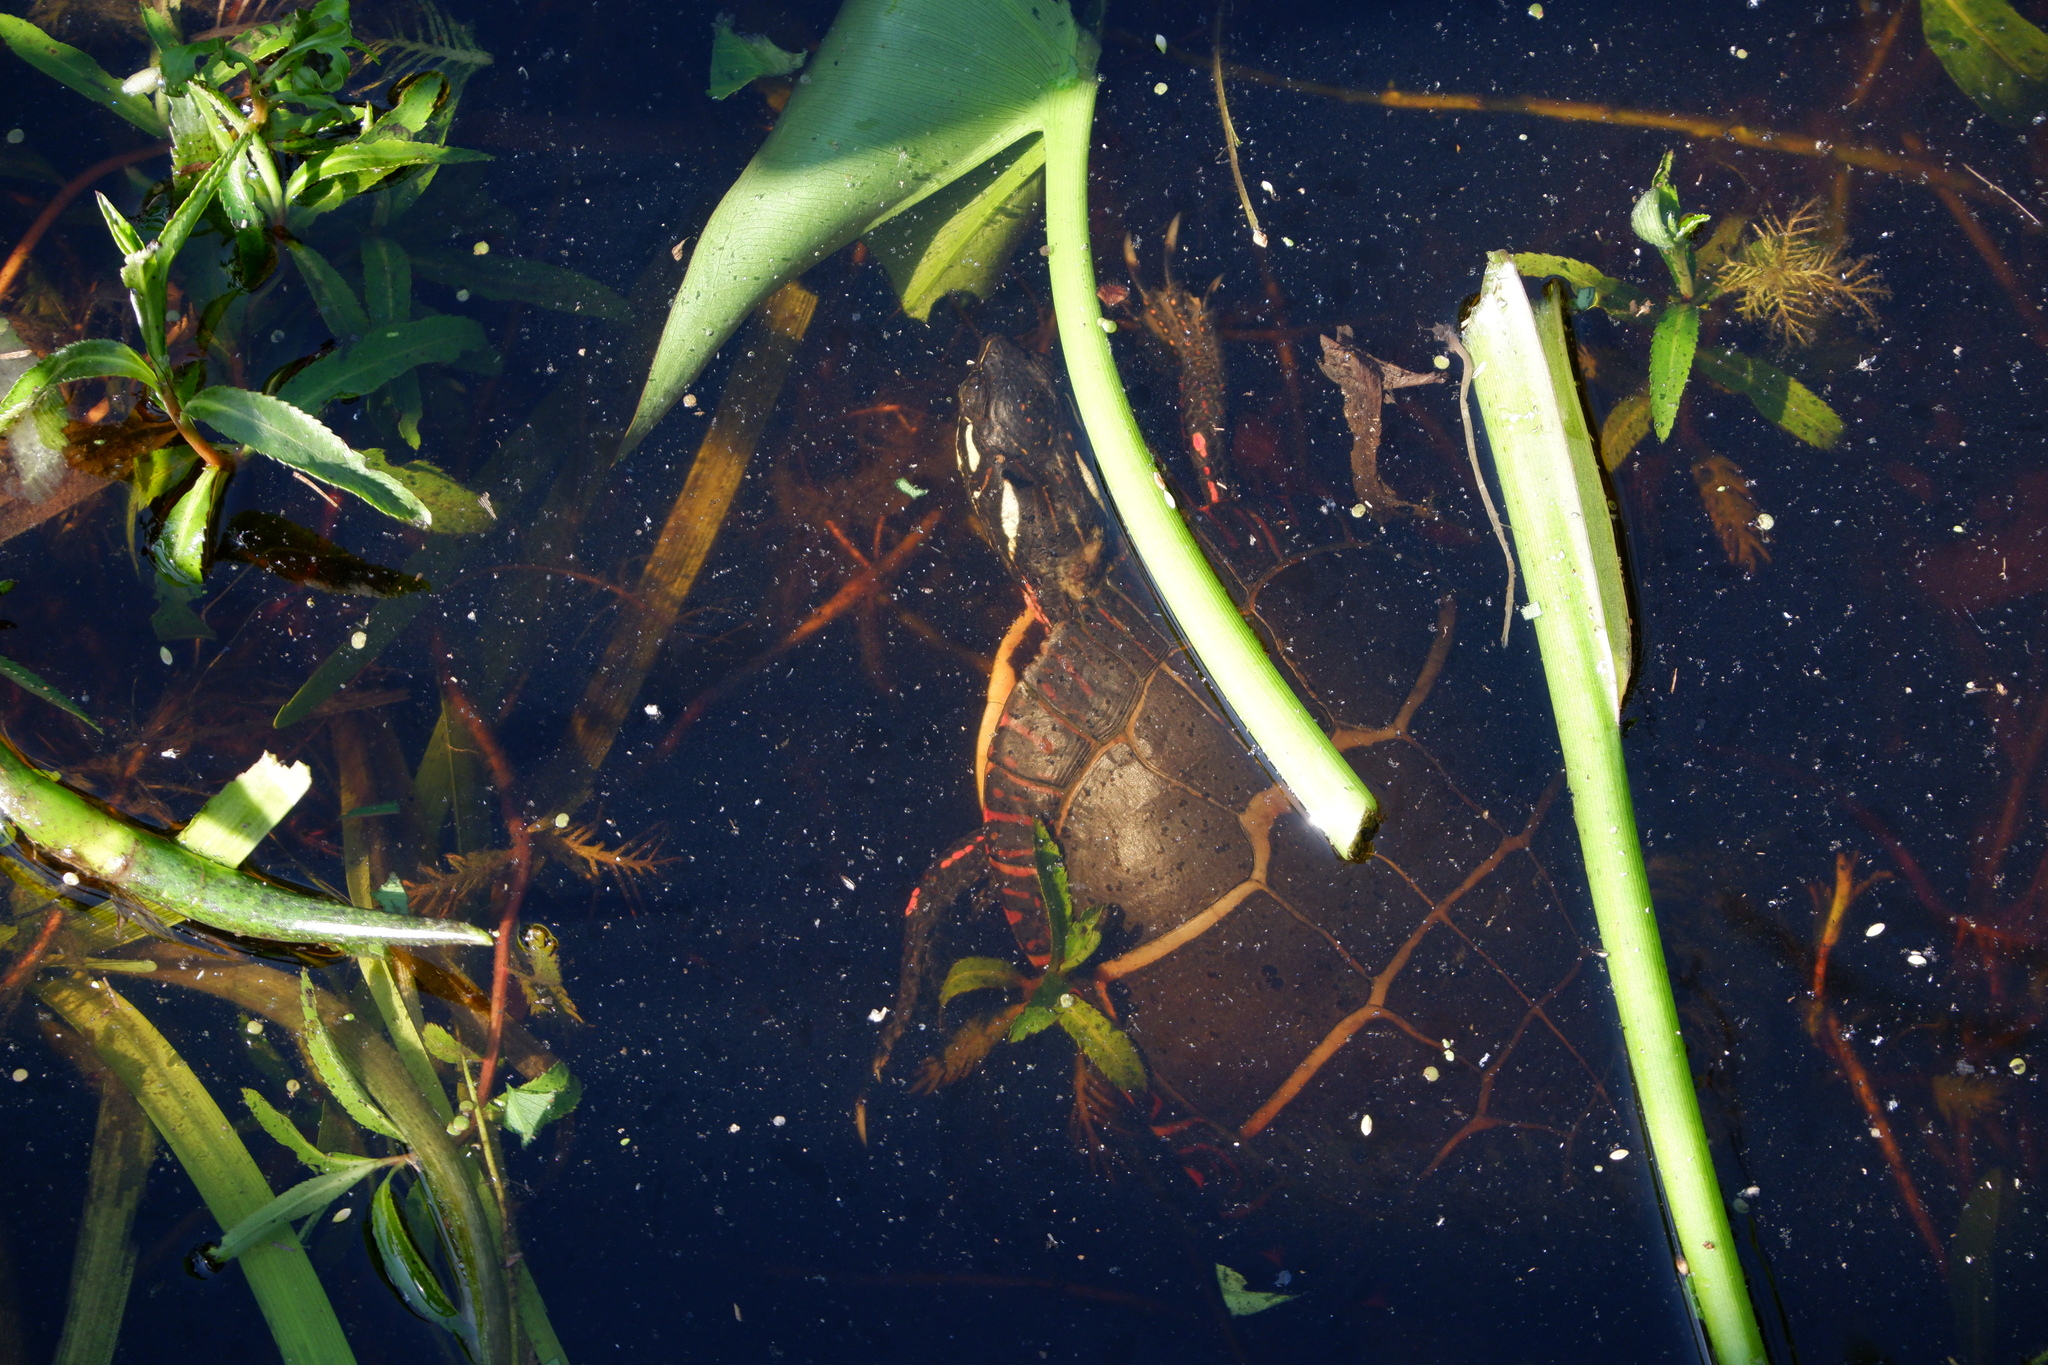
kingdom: Animalia
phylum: Chordata
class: Testudines
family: Emydidae
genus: Chrysemys
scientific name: Chrysemys picta
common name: Painted turtle
